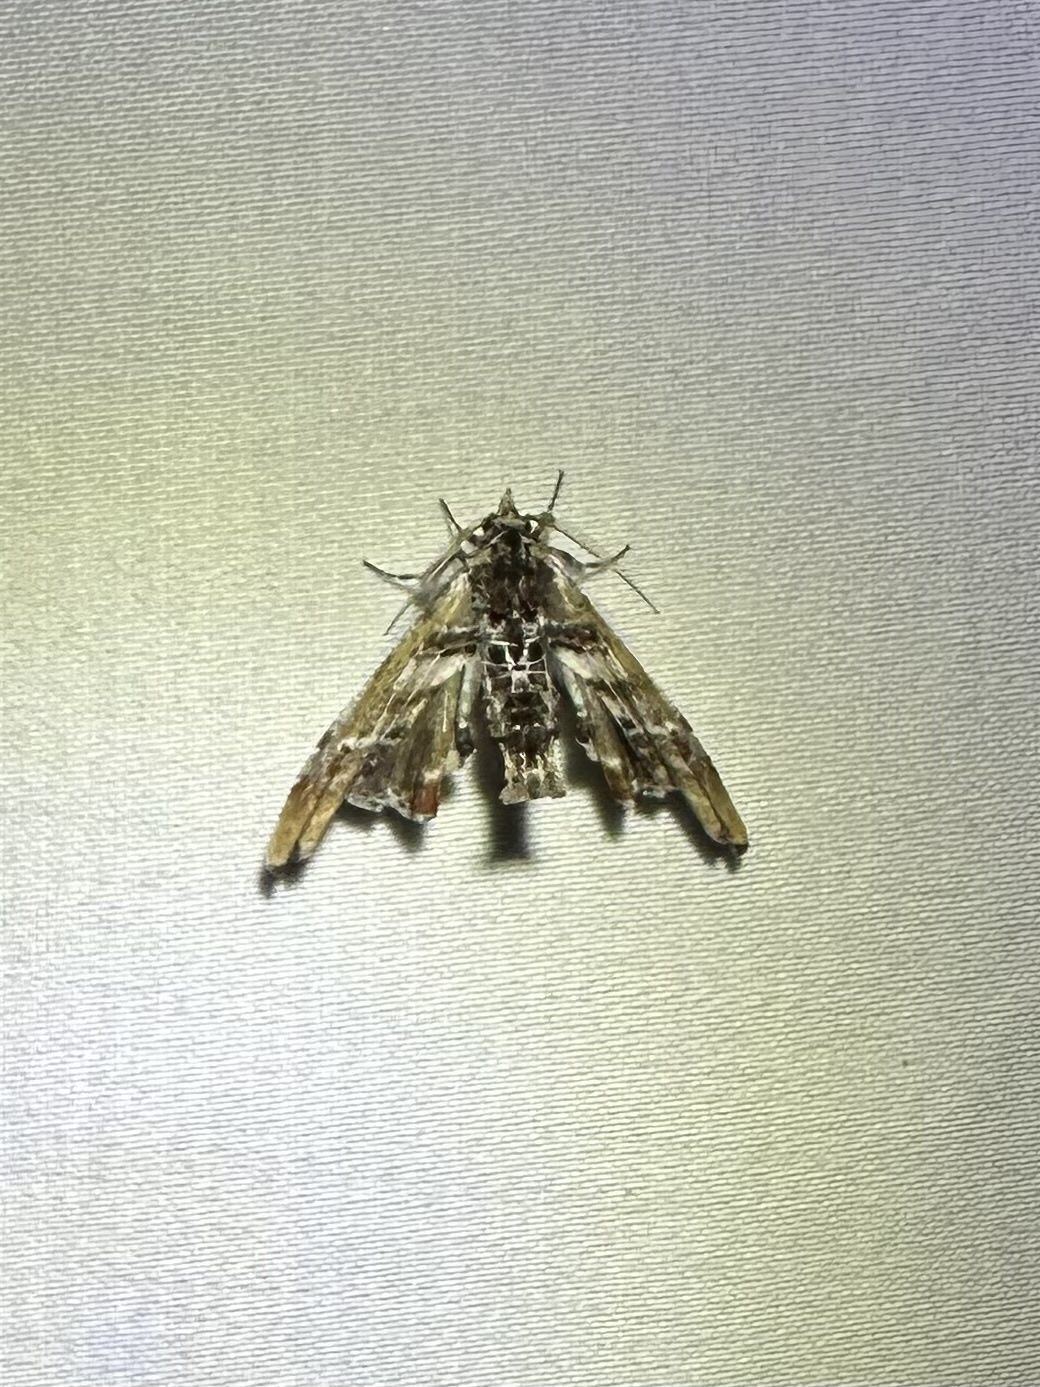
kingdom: Animalia
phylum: Arthropoda
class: Insecta
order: Lepidoptera
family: Euteliidae
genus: Marathyssa
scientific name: Marathyssa basalis
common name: Light marathyssa moth
